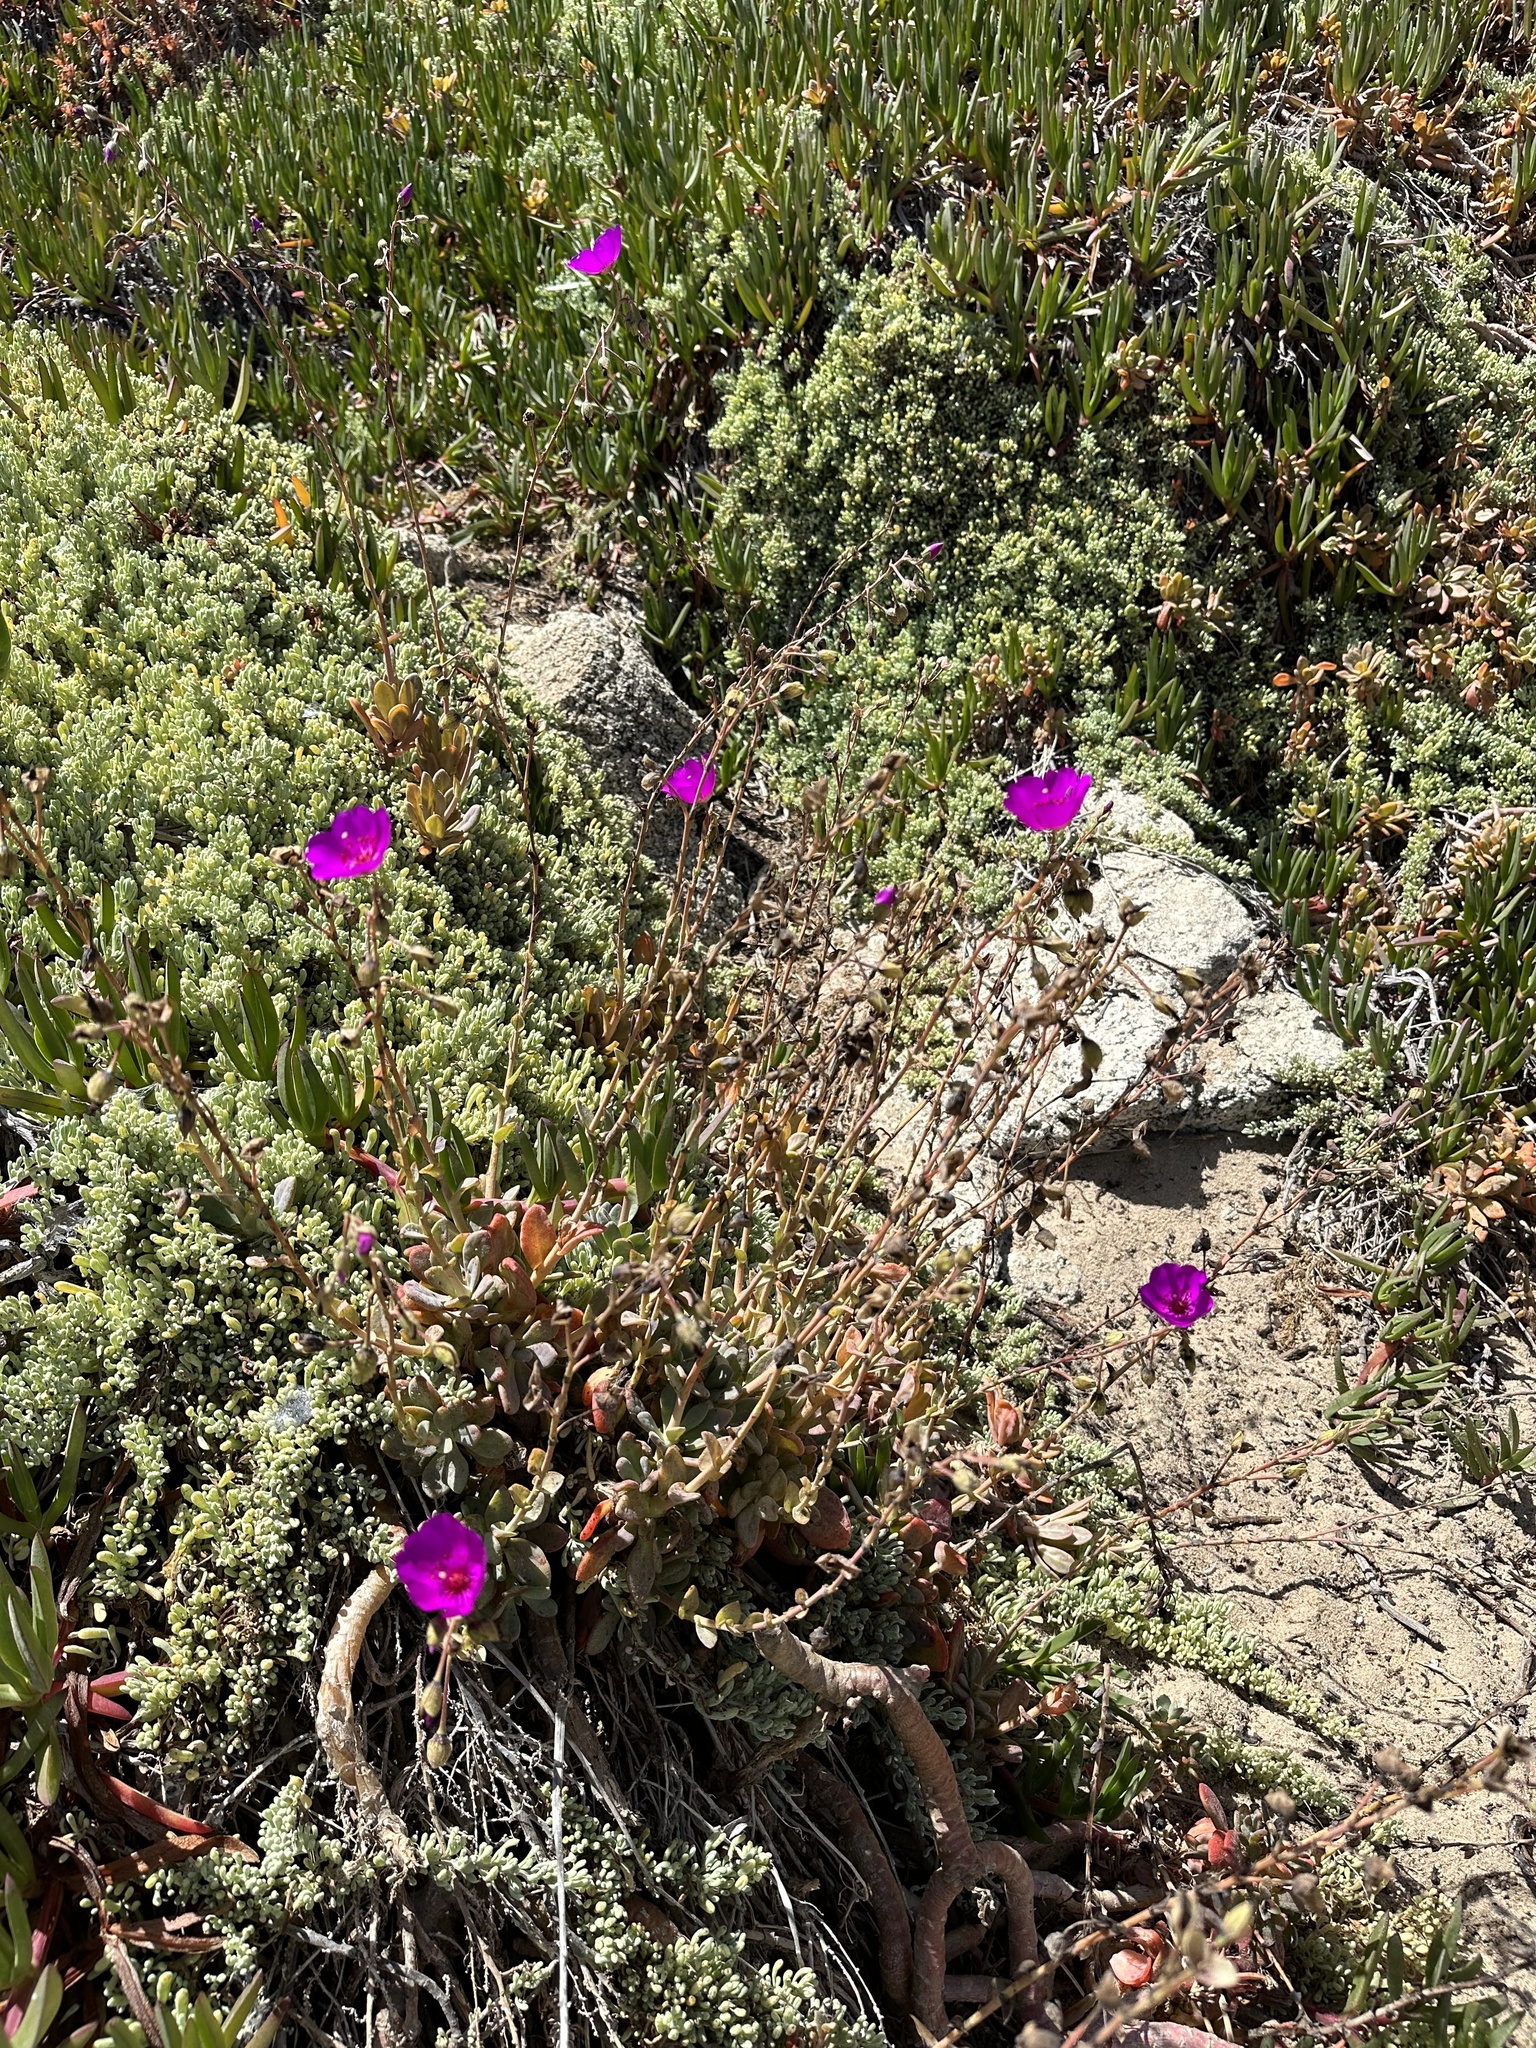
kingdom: Plantae
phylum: Tracheophyta
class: Magnoliopsida
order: Caryophyllales
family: Montiaceae
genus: Cistanthe
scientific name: Cistanthe laxiflora
